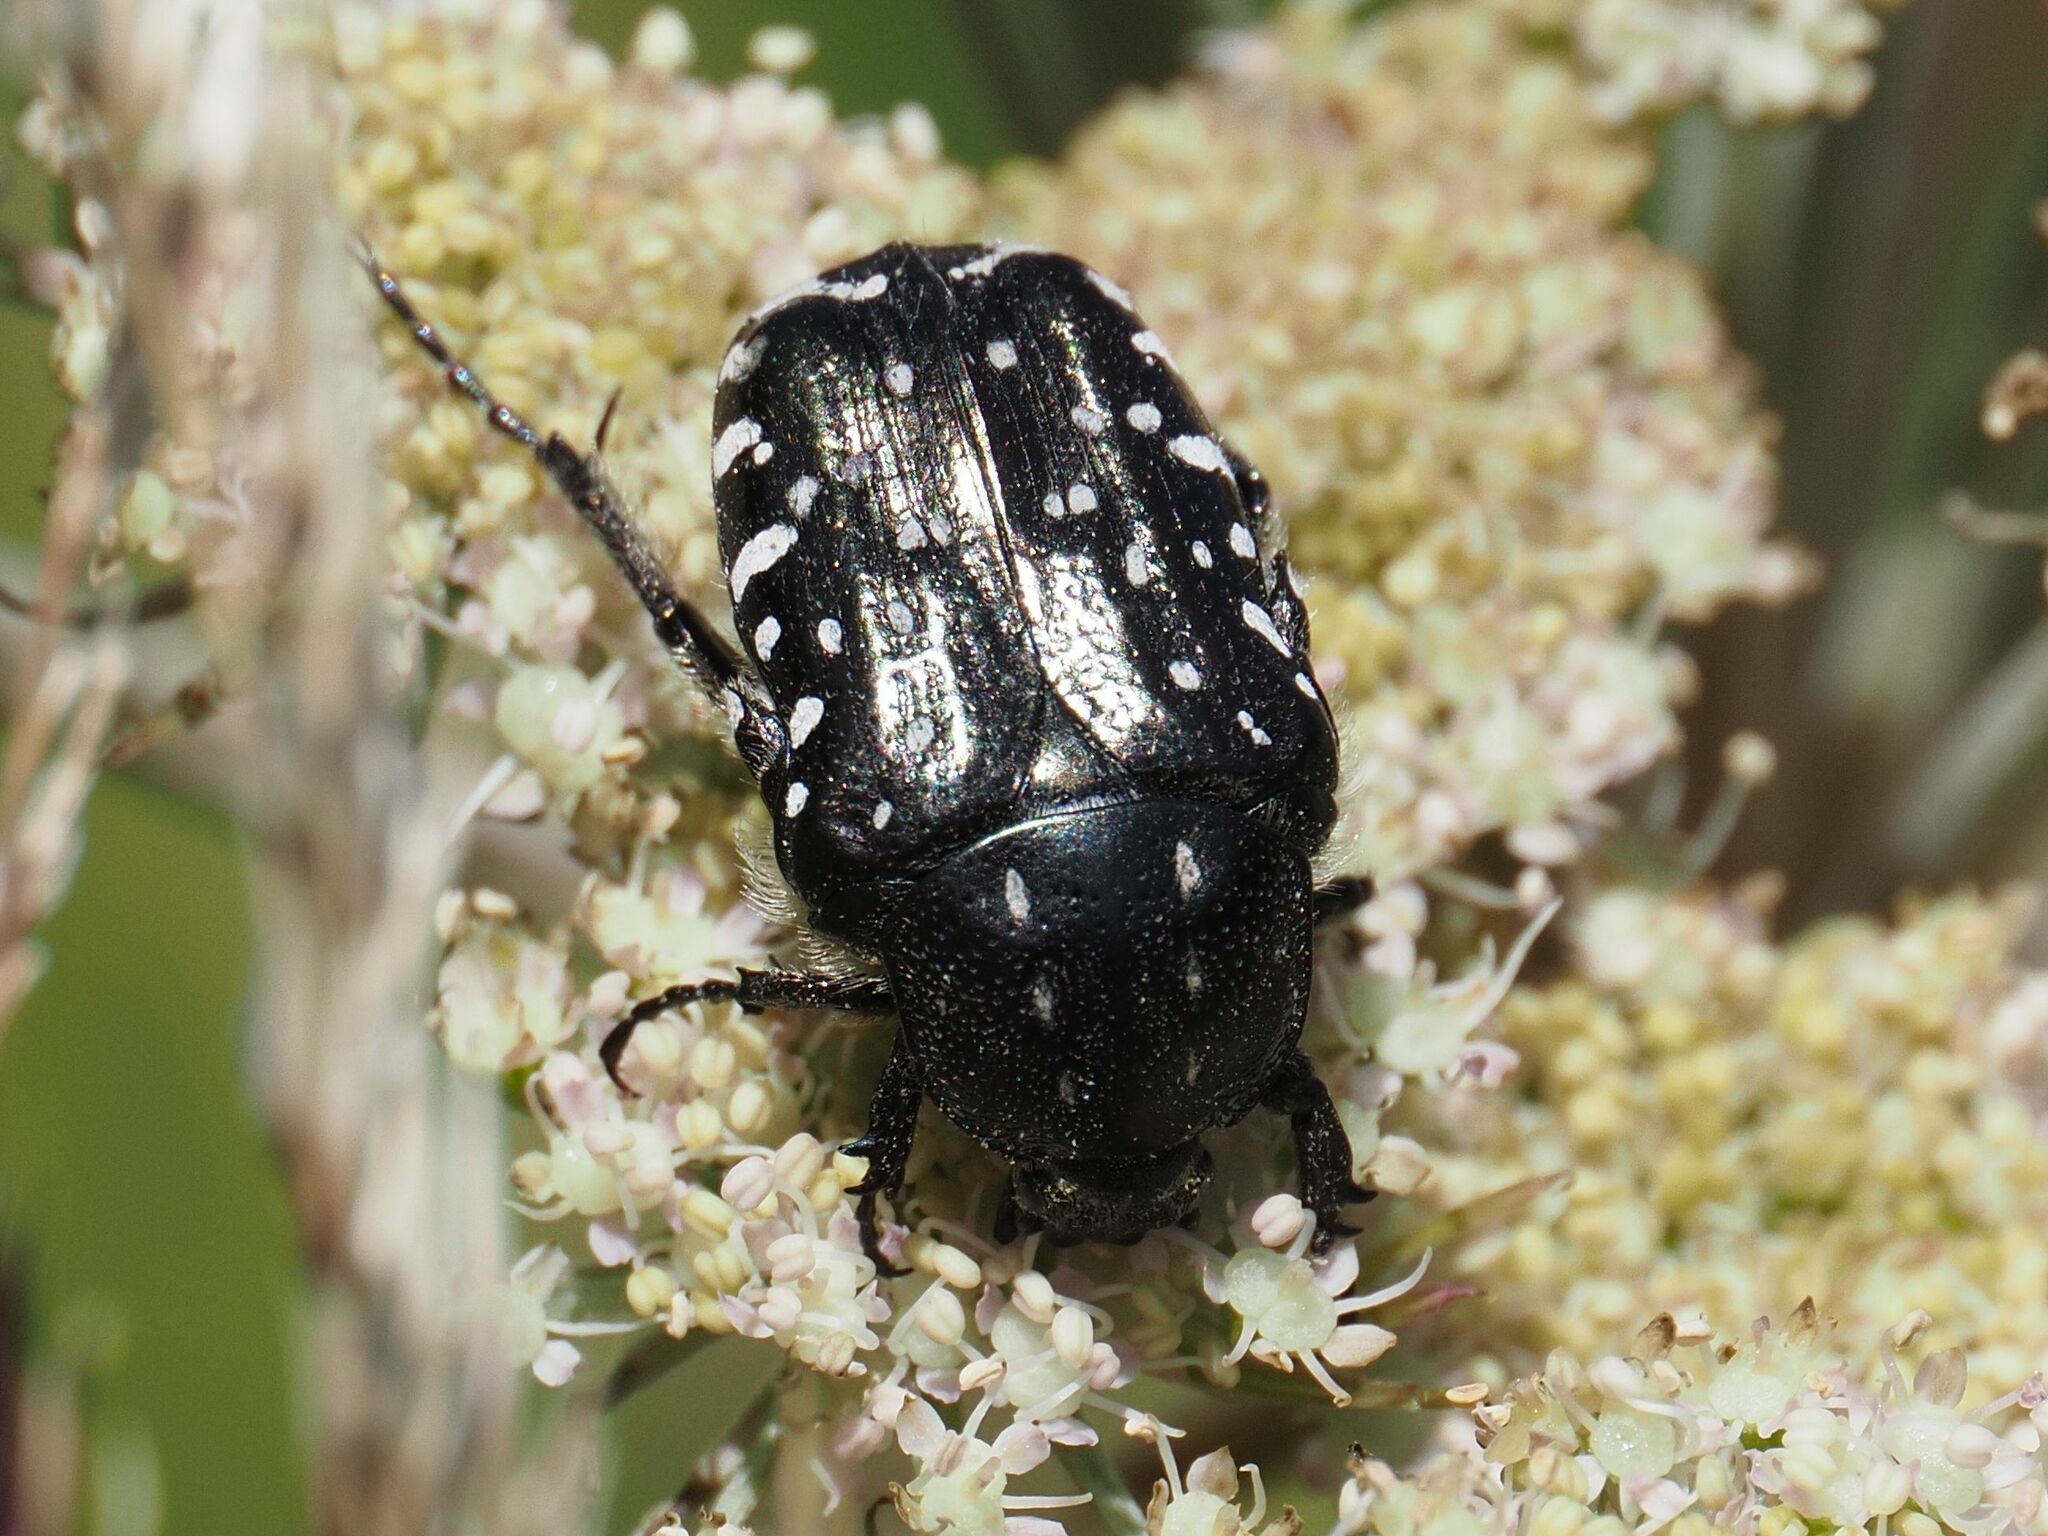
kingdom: Animalia
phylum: Arthropoda
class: Insecta
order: Coleoptera
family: Scarabaeidae
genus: Oxythyrea
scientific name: Oxythyrea funesta
